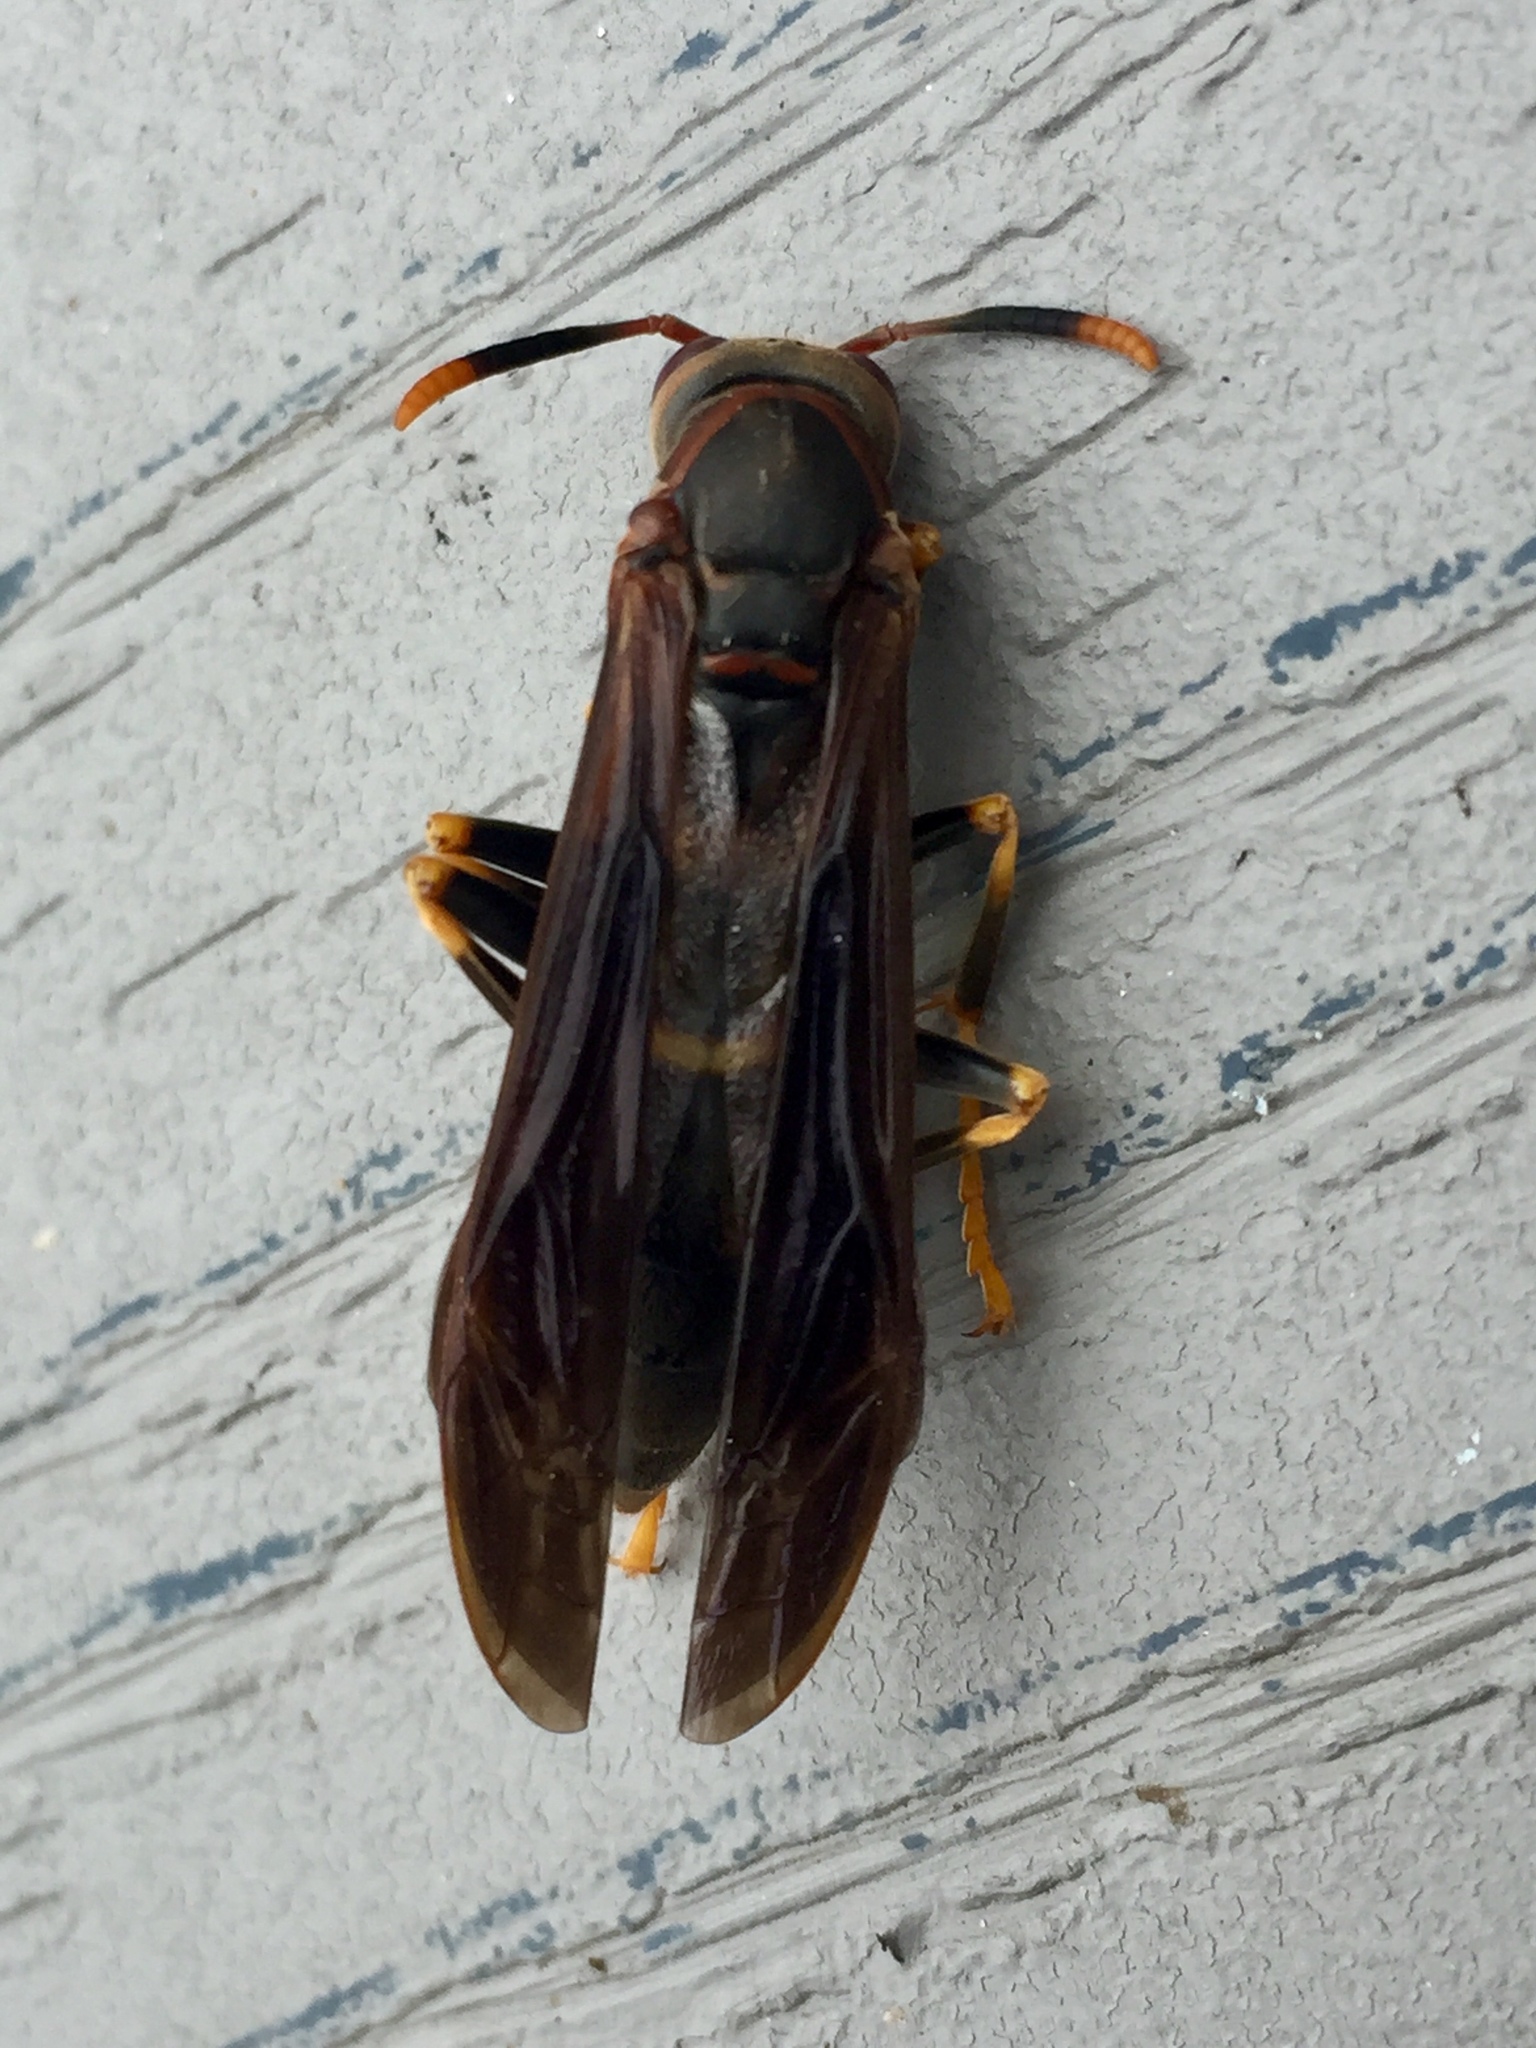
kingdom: Animalia
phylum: Arthropoda
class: Insecta
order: Hymenoptera
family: Eumenidae
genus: Polistes
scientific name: Polistes annularis
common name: Ringed paper wasp
